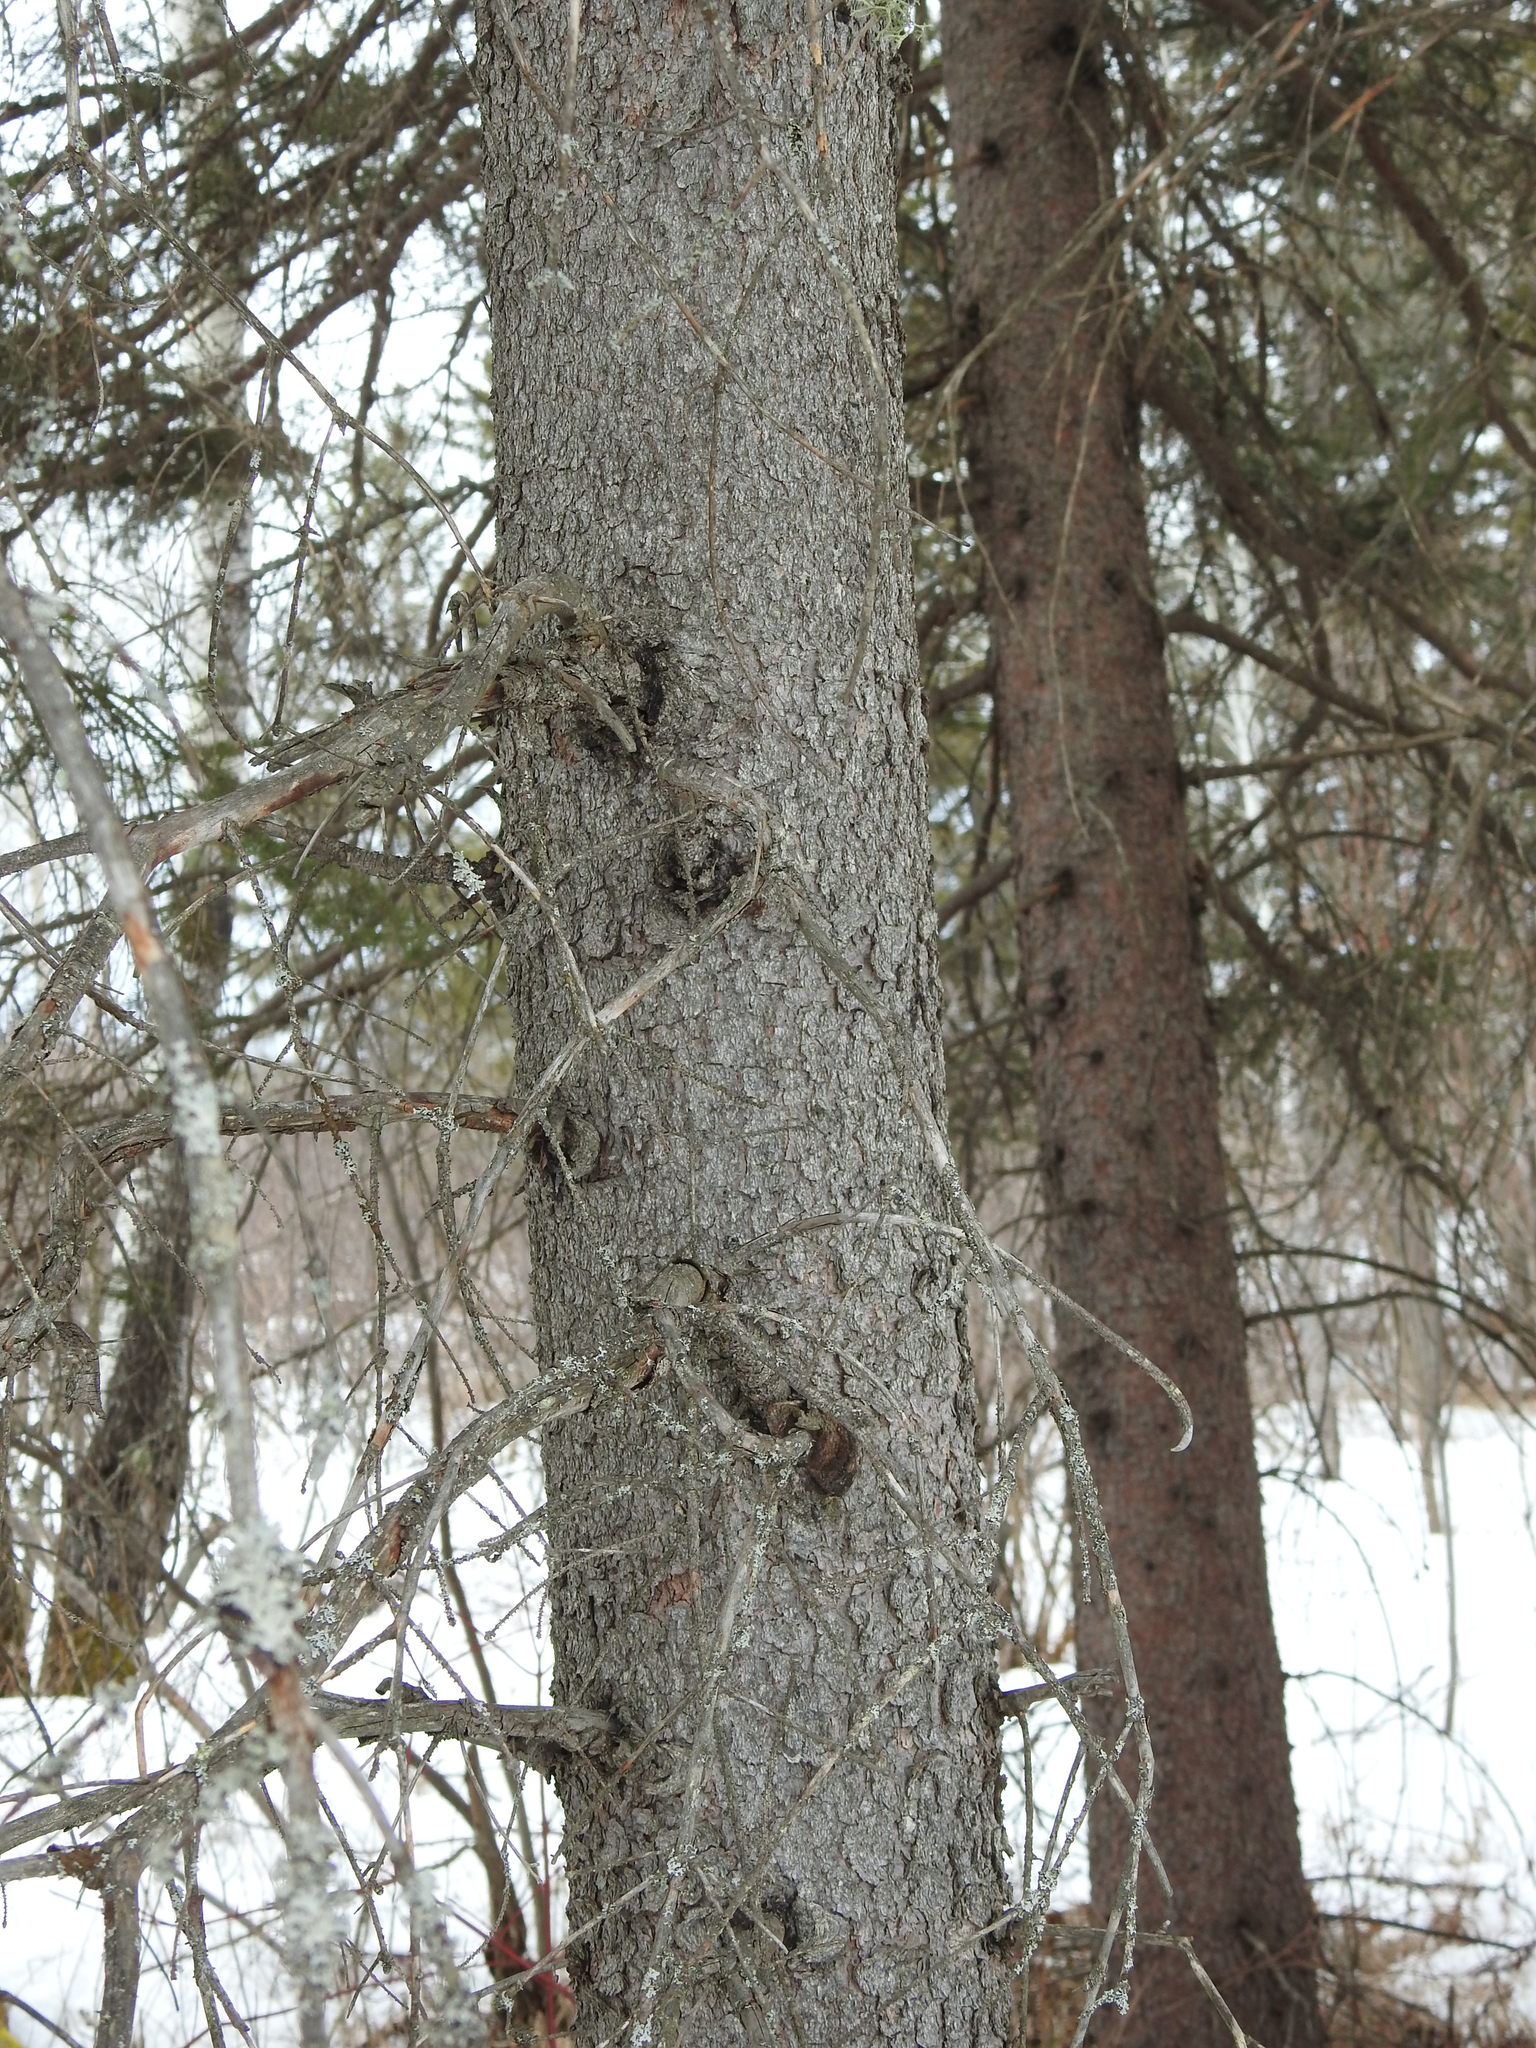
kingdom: Plantae
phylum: Tracheophyta
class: Pinopsida
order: Pinales
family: Pinaceae
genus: Picea
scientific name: Picea glauca
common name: White spruce
